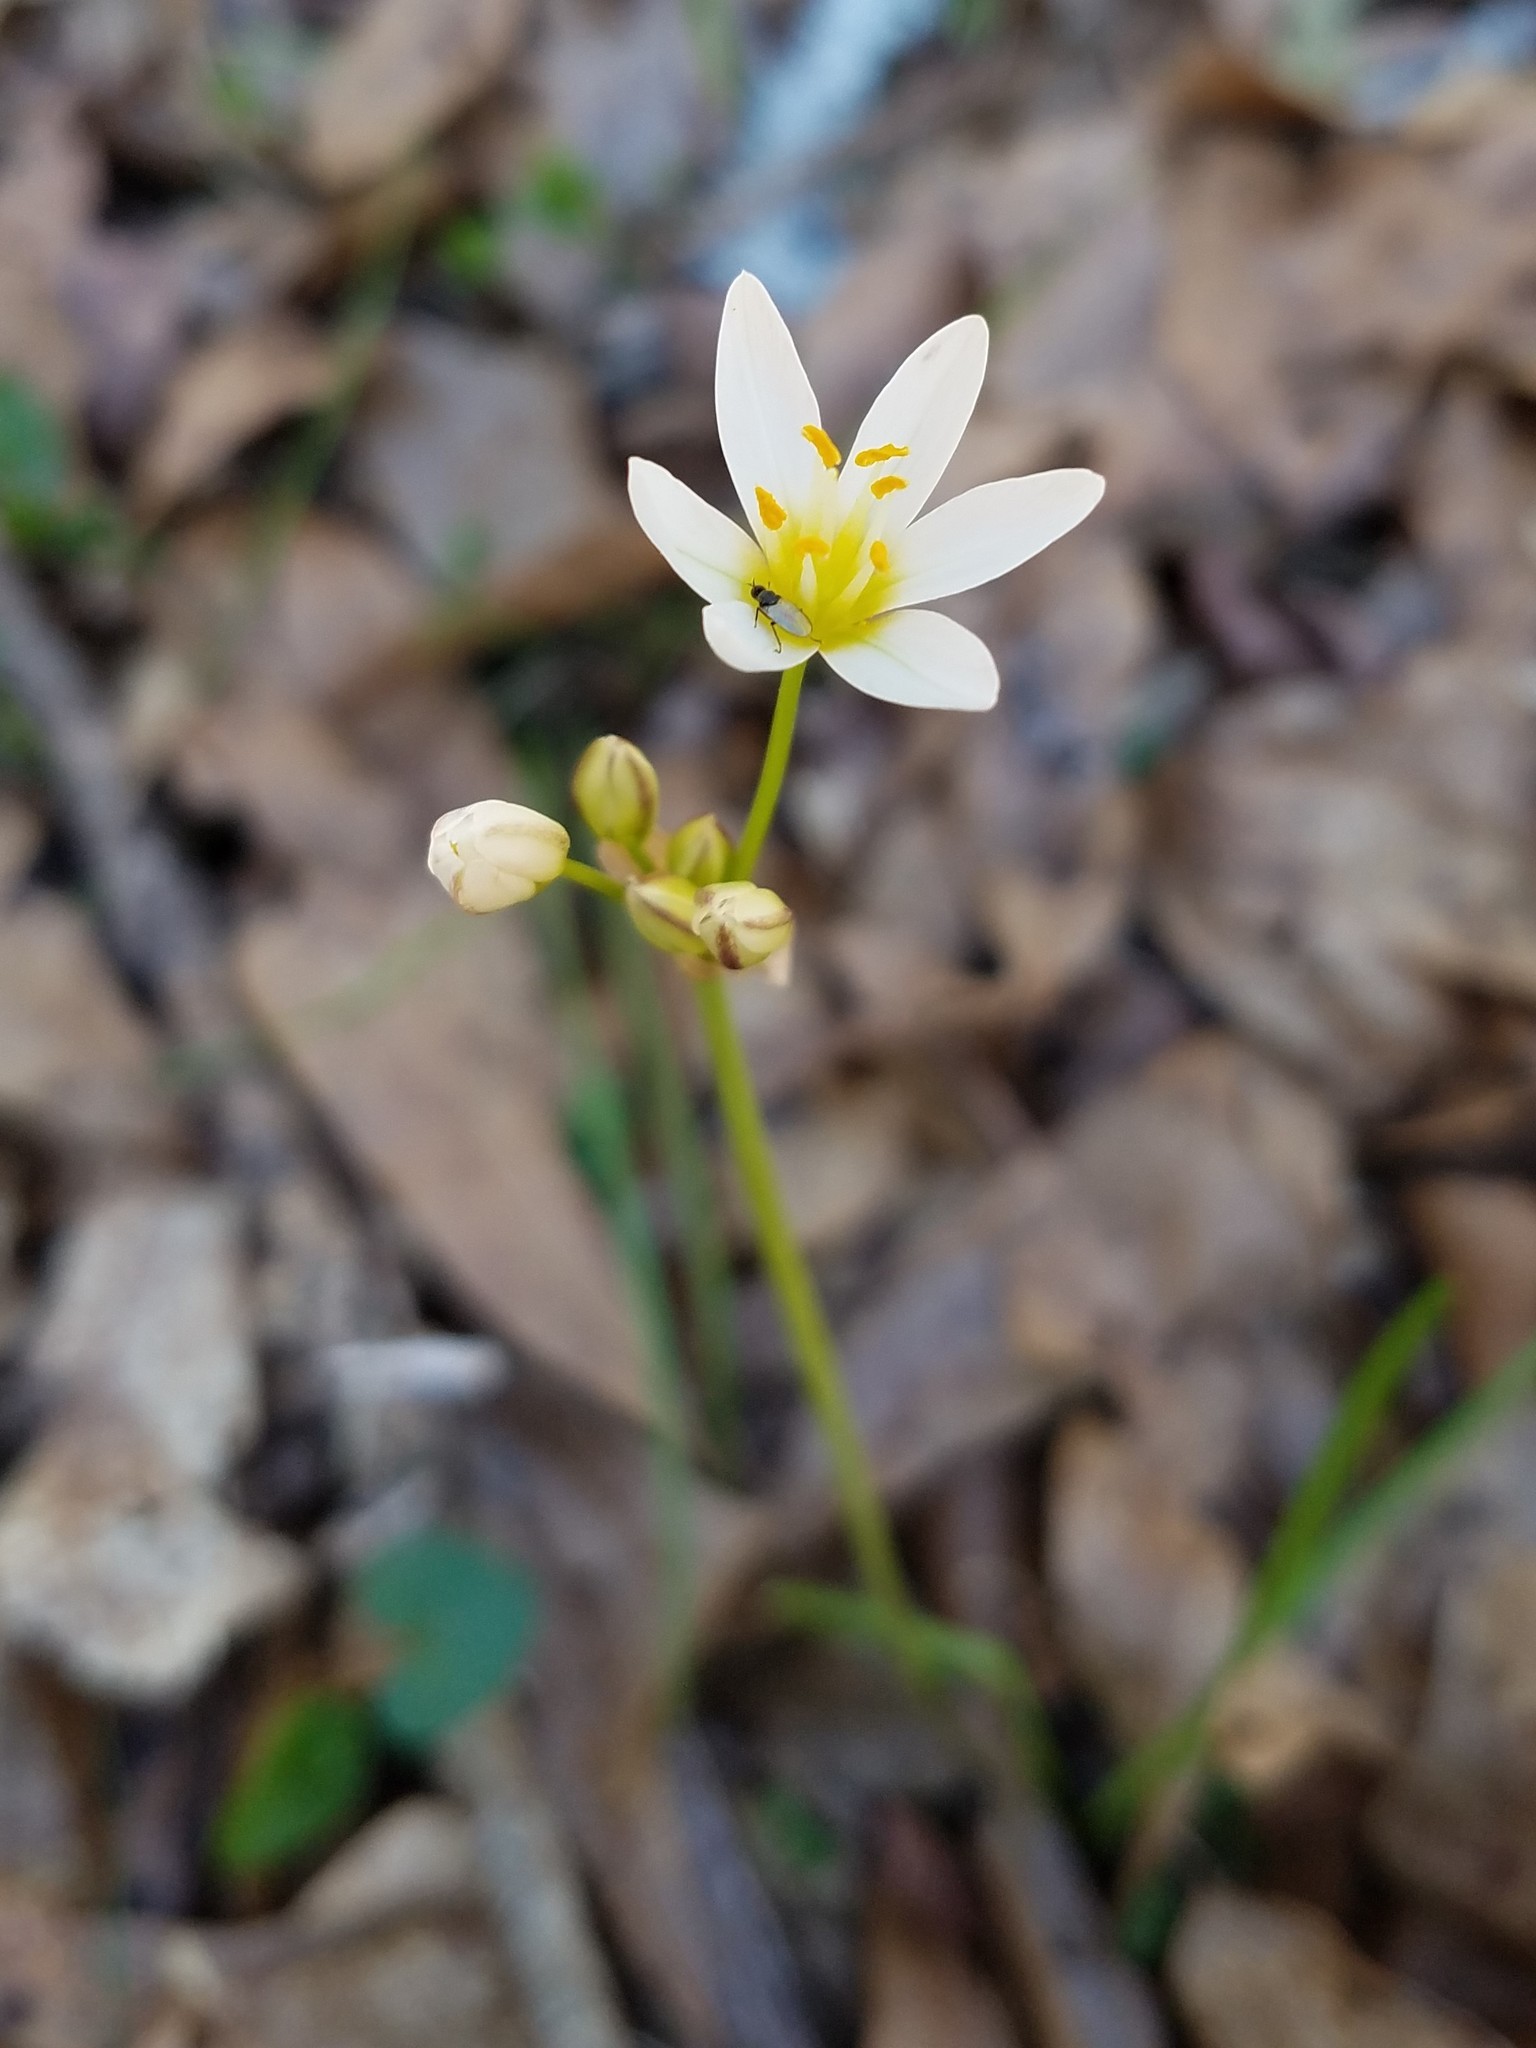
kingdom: Plantae
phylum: Tracheophyta
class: Liliopsida
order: Asparagales
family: Amaryllidaceae
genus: Nothoscordum
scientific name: Nothoscordum bivalve
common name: Crow-poison
